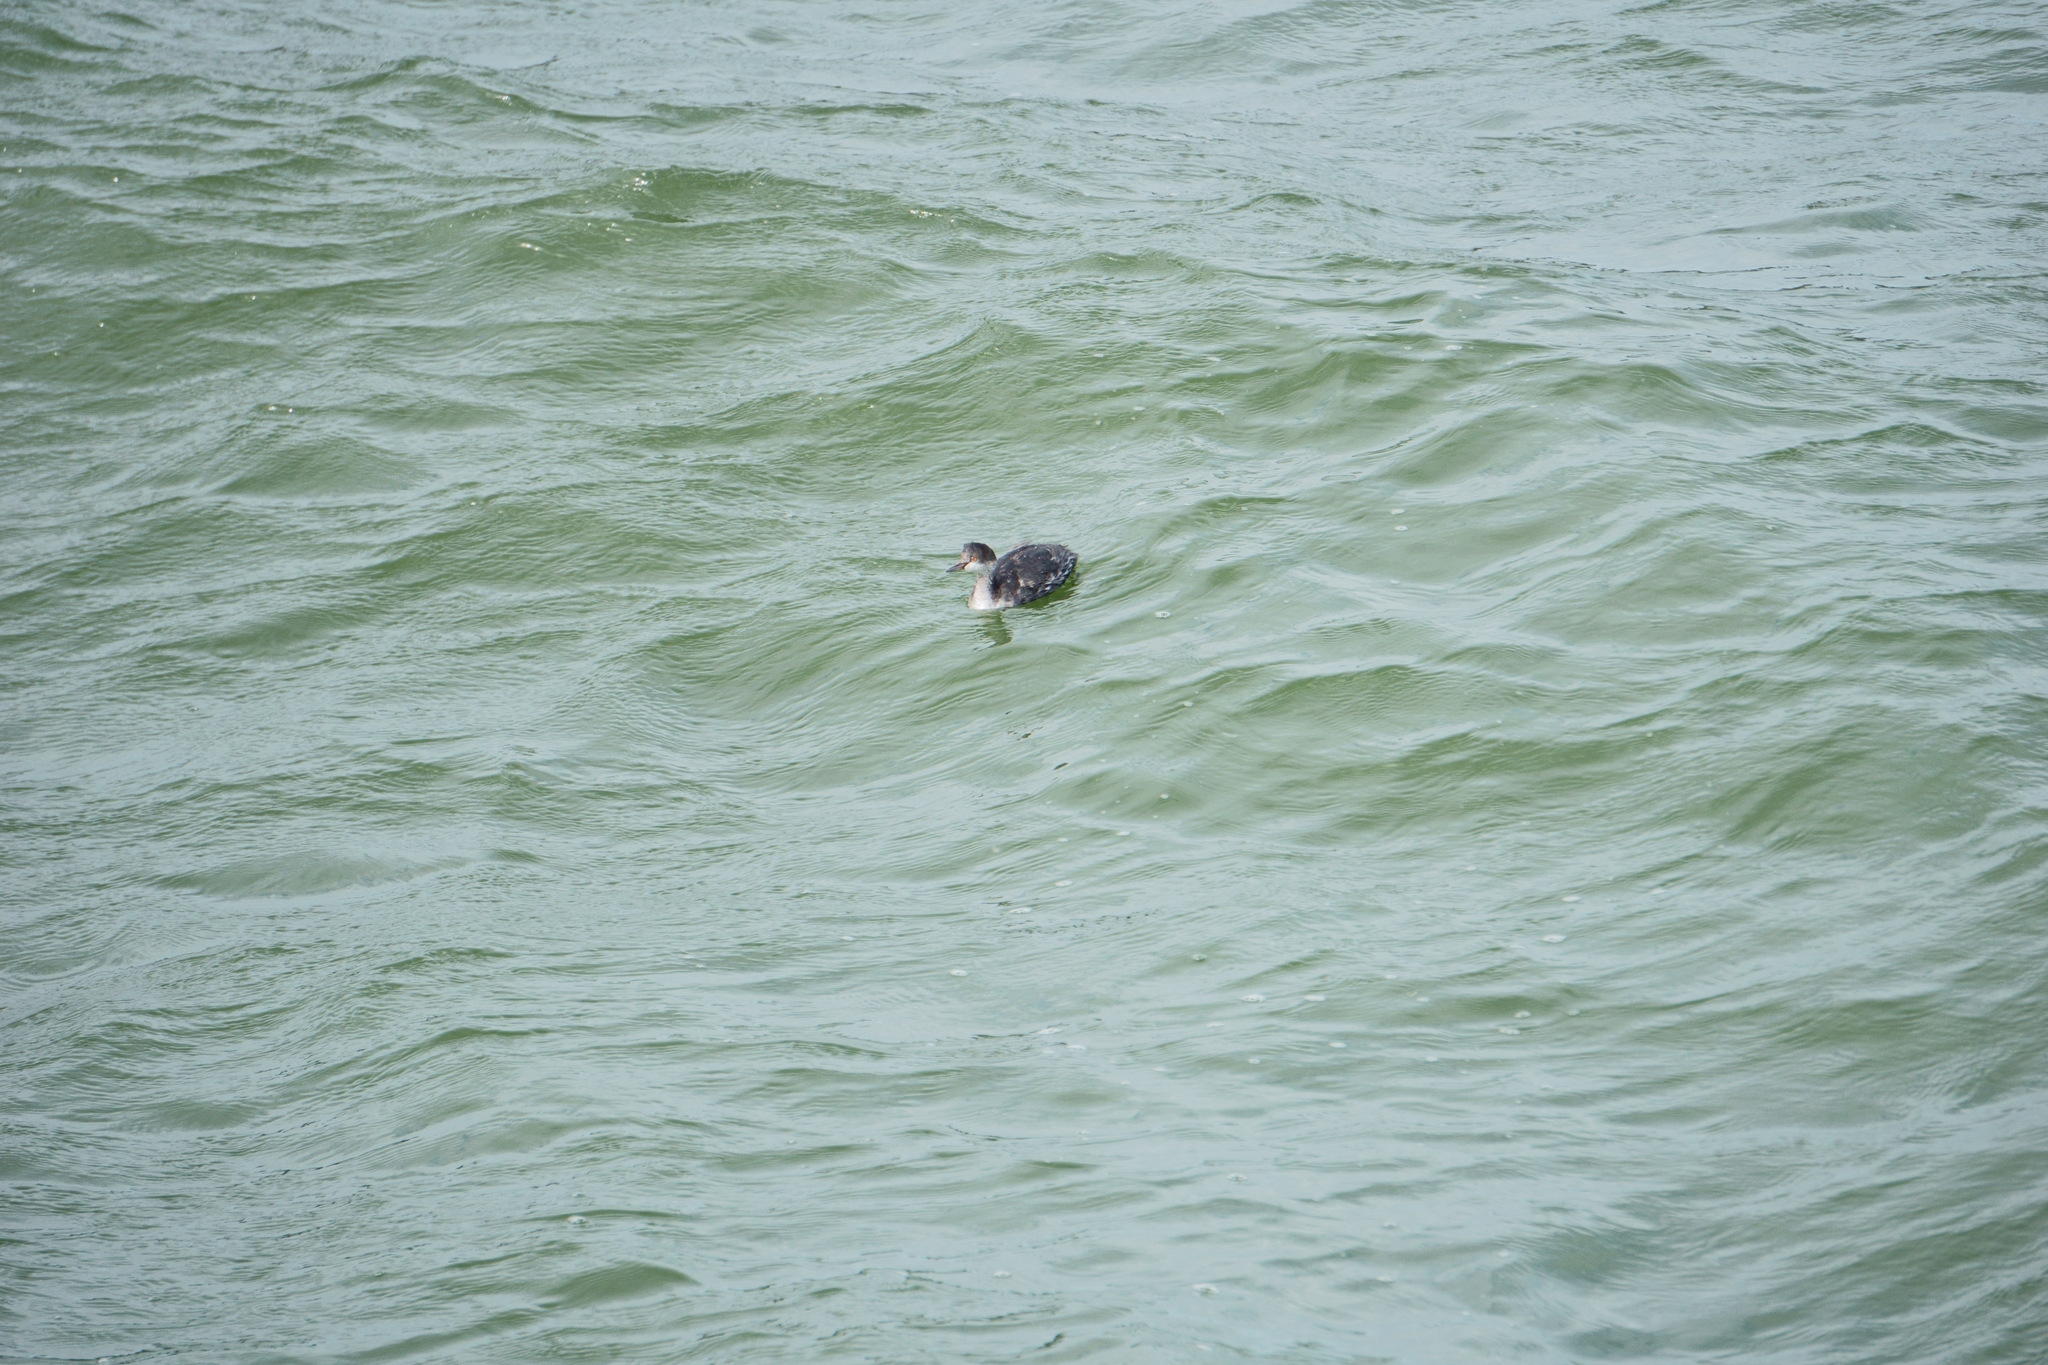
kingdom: Animalia
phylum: Chordata
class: Aves
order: Podicipediformes
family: Podicipedidae
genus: Podiceps
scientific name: Podiceps nigricollis
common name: Black-necked grebe
